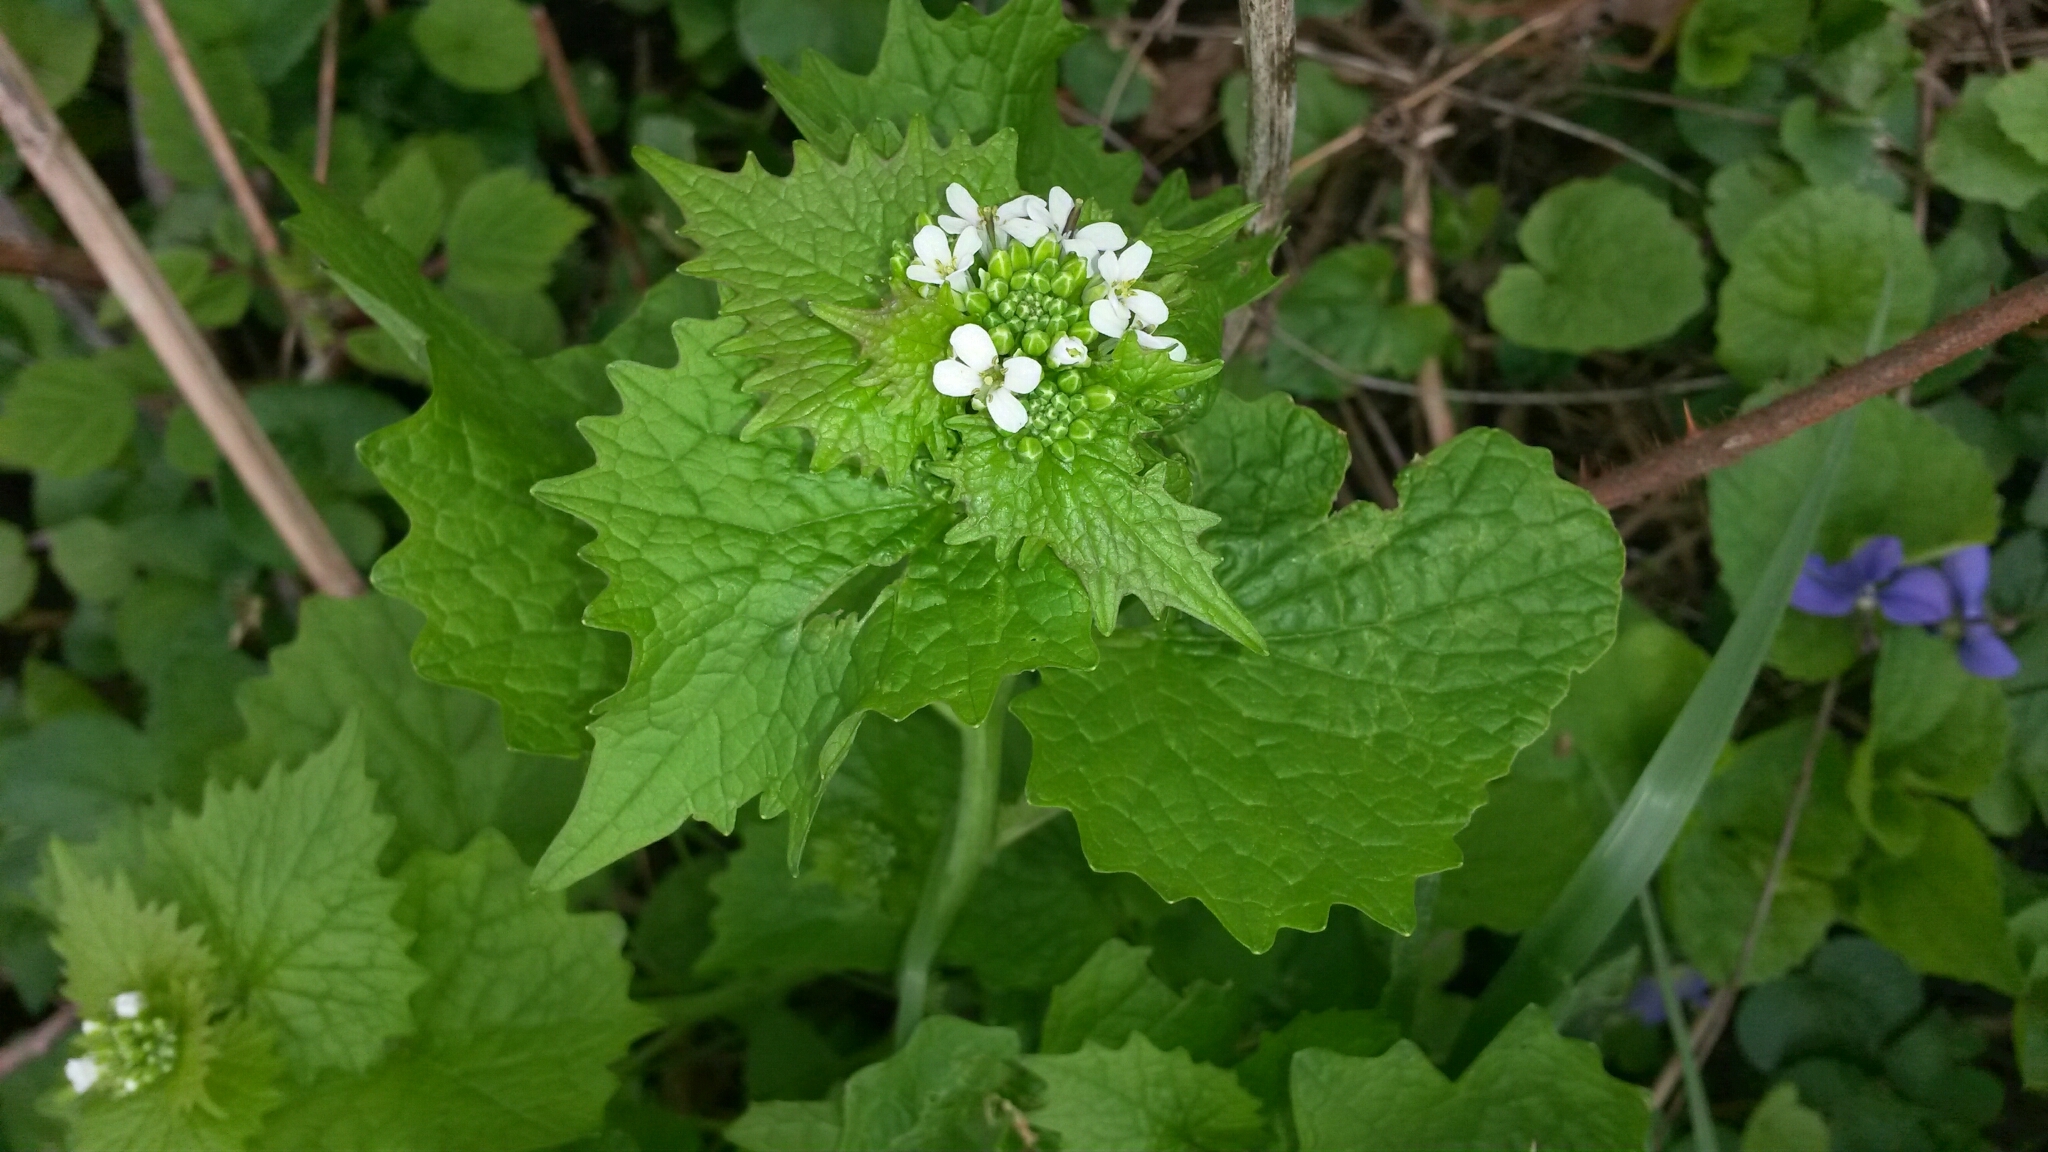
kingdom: Plantae
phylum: Tracheophyta
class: Magnoliopsida
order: Brassicales
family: Brassicaceae
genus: Alliaria
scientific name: Alliaria petiolata
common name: Garlic mustard
